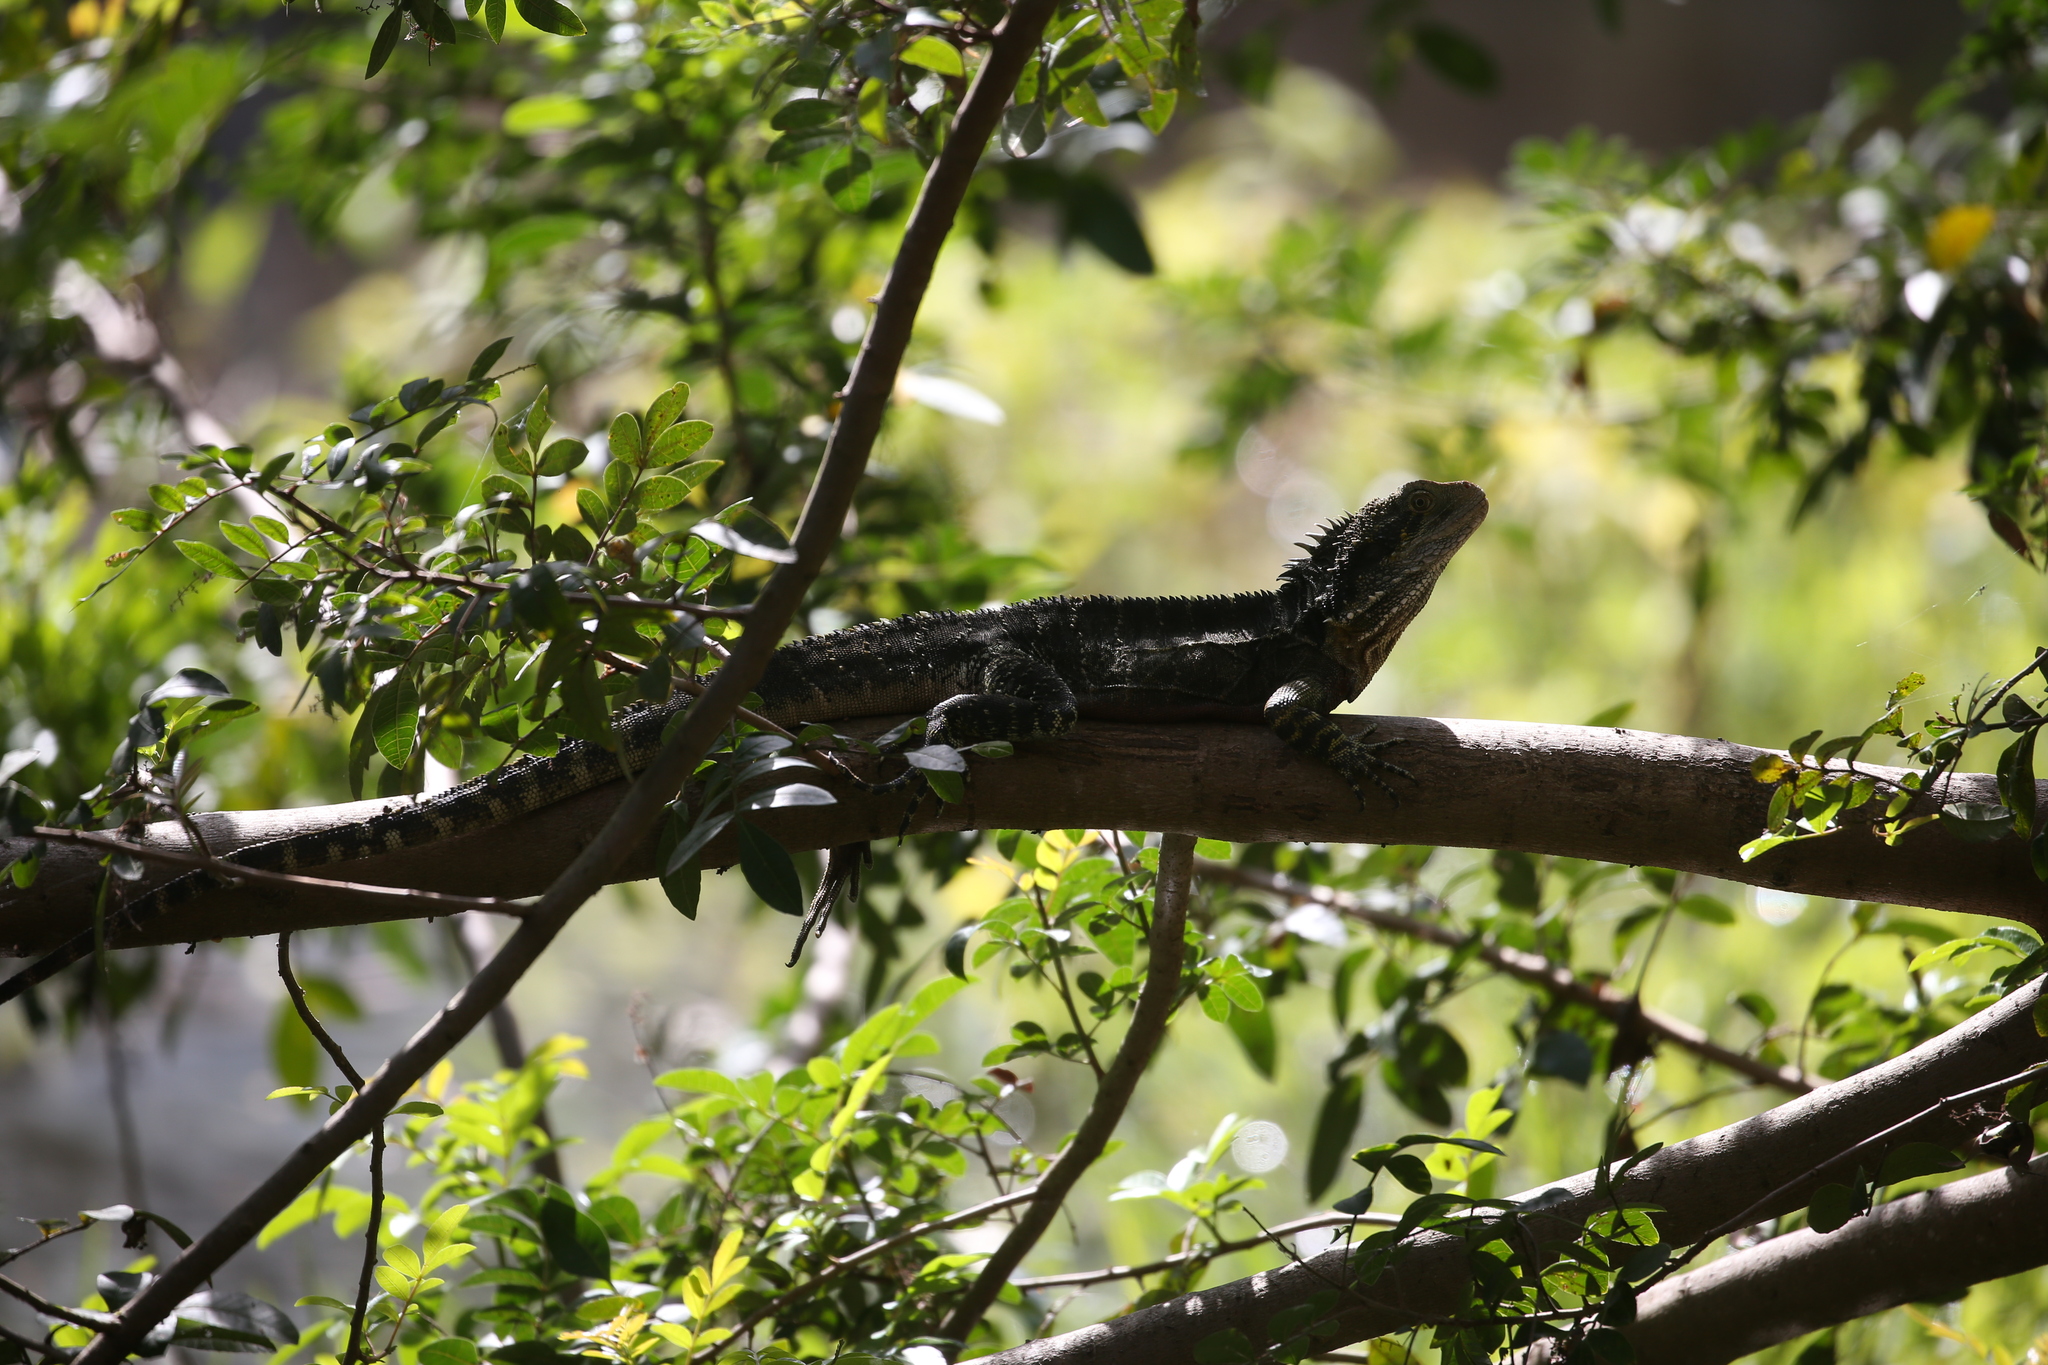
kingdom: Animalia
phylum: Chordata
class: Squamata
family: Agamidae
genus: Intellagama
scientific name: Intellagama lesueurii
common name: Eastern water dragon
